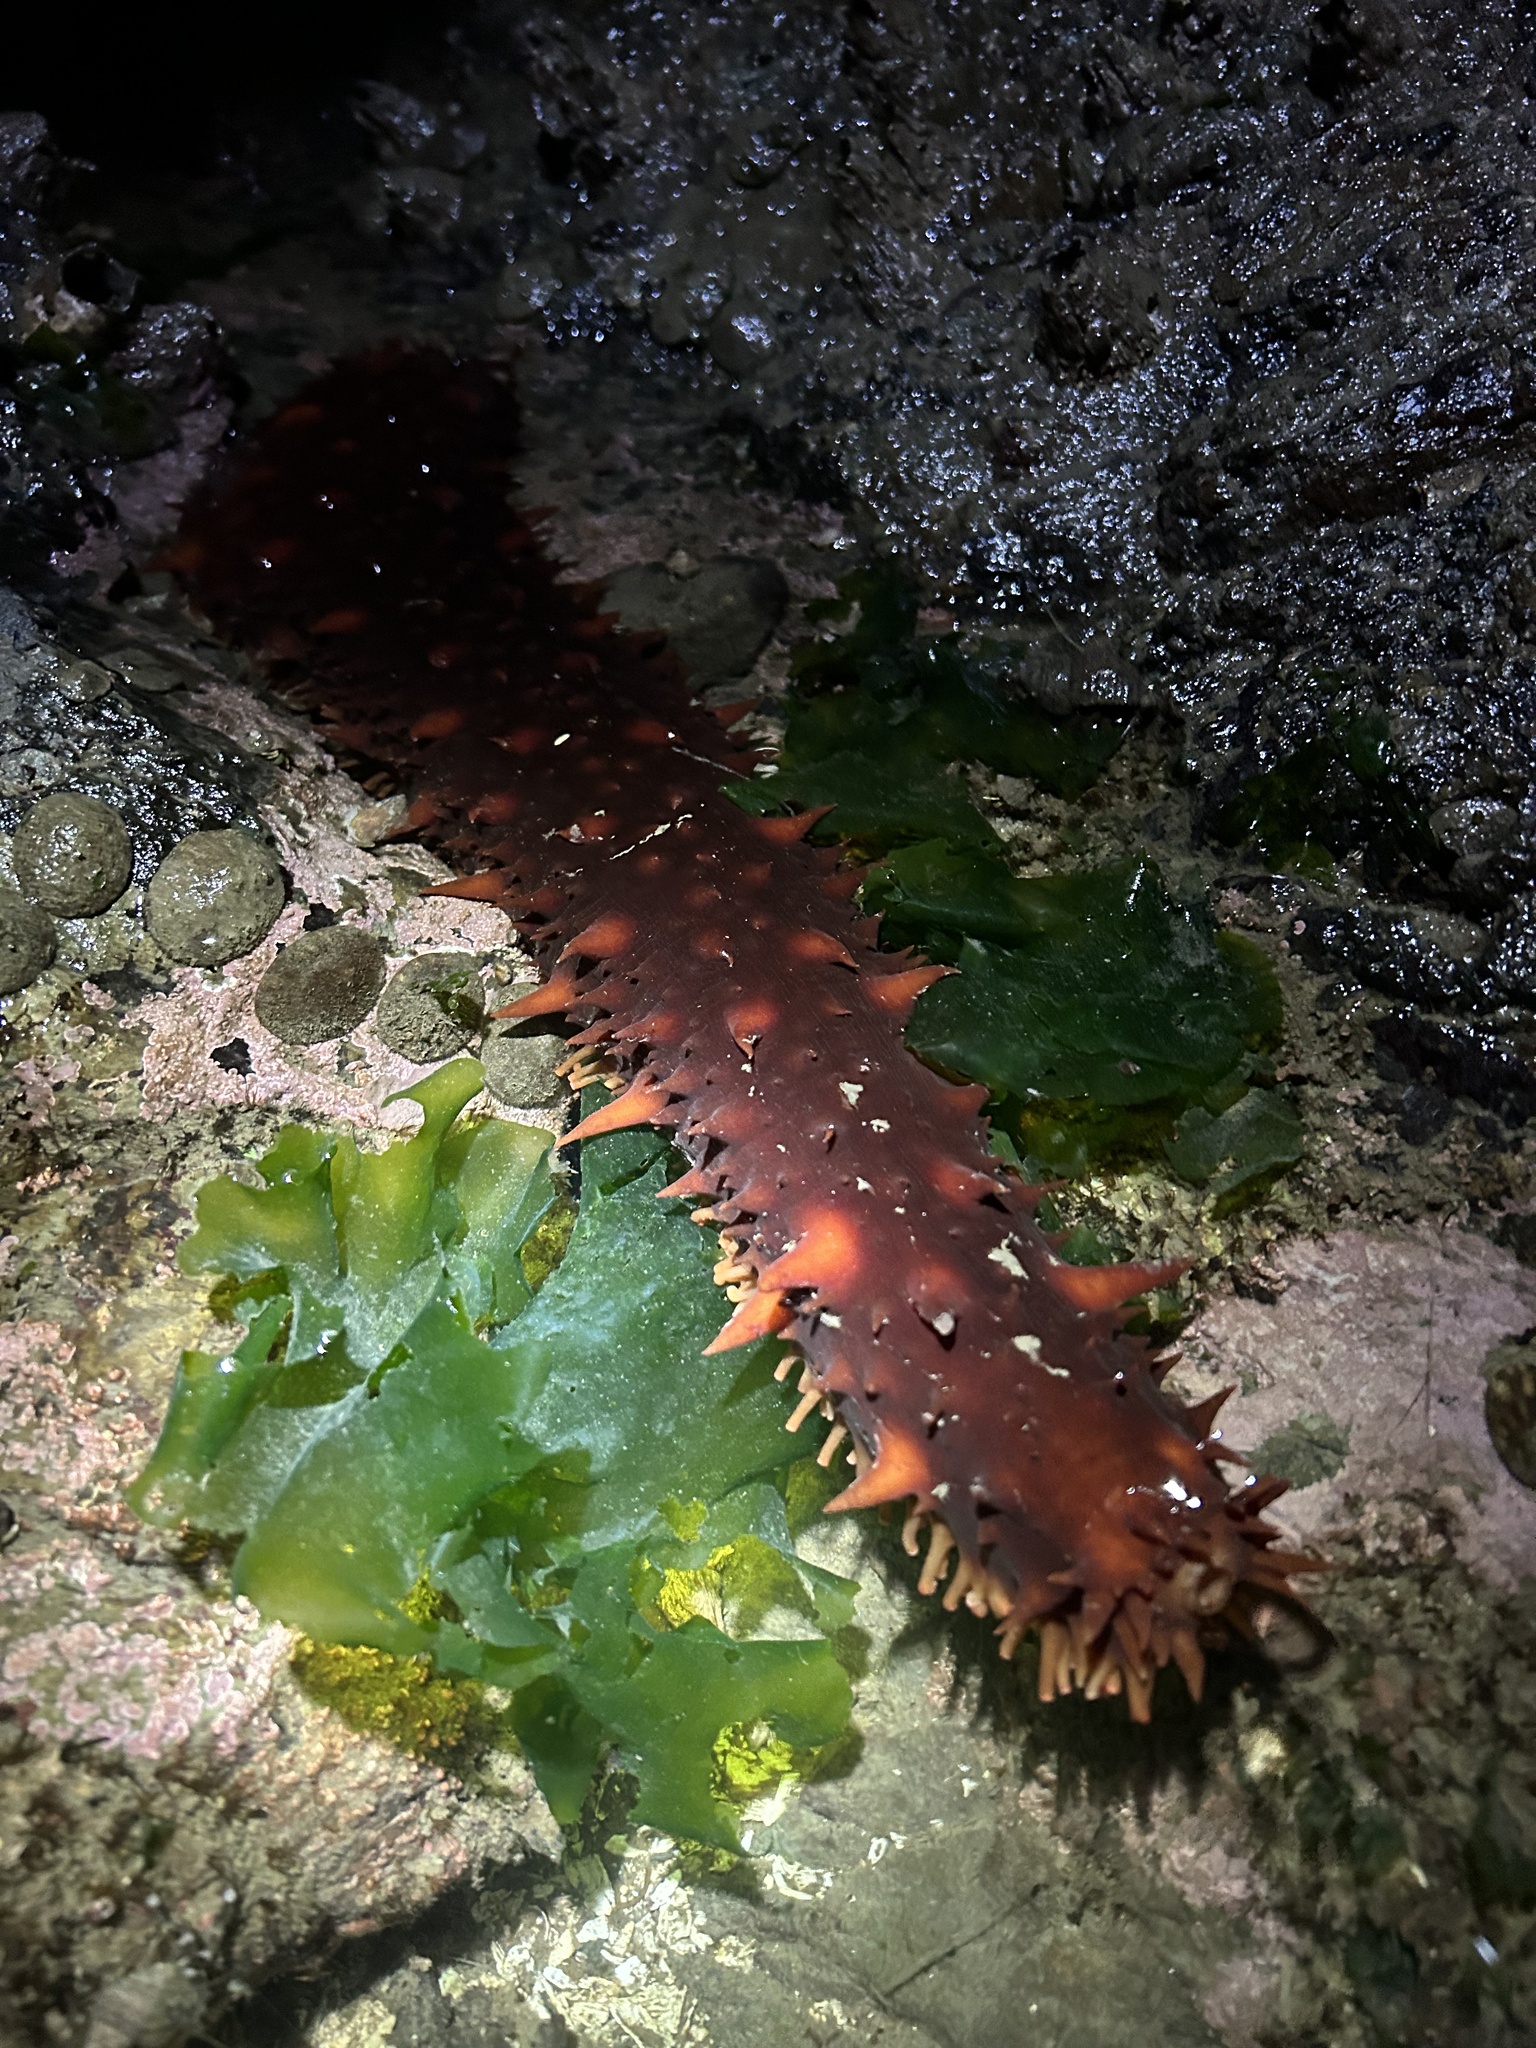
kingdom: Animalia
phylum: Echinodermata
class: Holothuroidea
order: Synallactida
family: Stichopodidae
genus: Apostichopus
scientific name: Apostichopus californicus
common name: California sea cucumber
